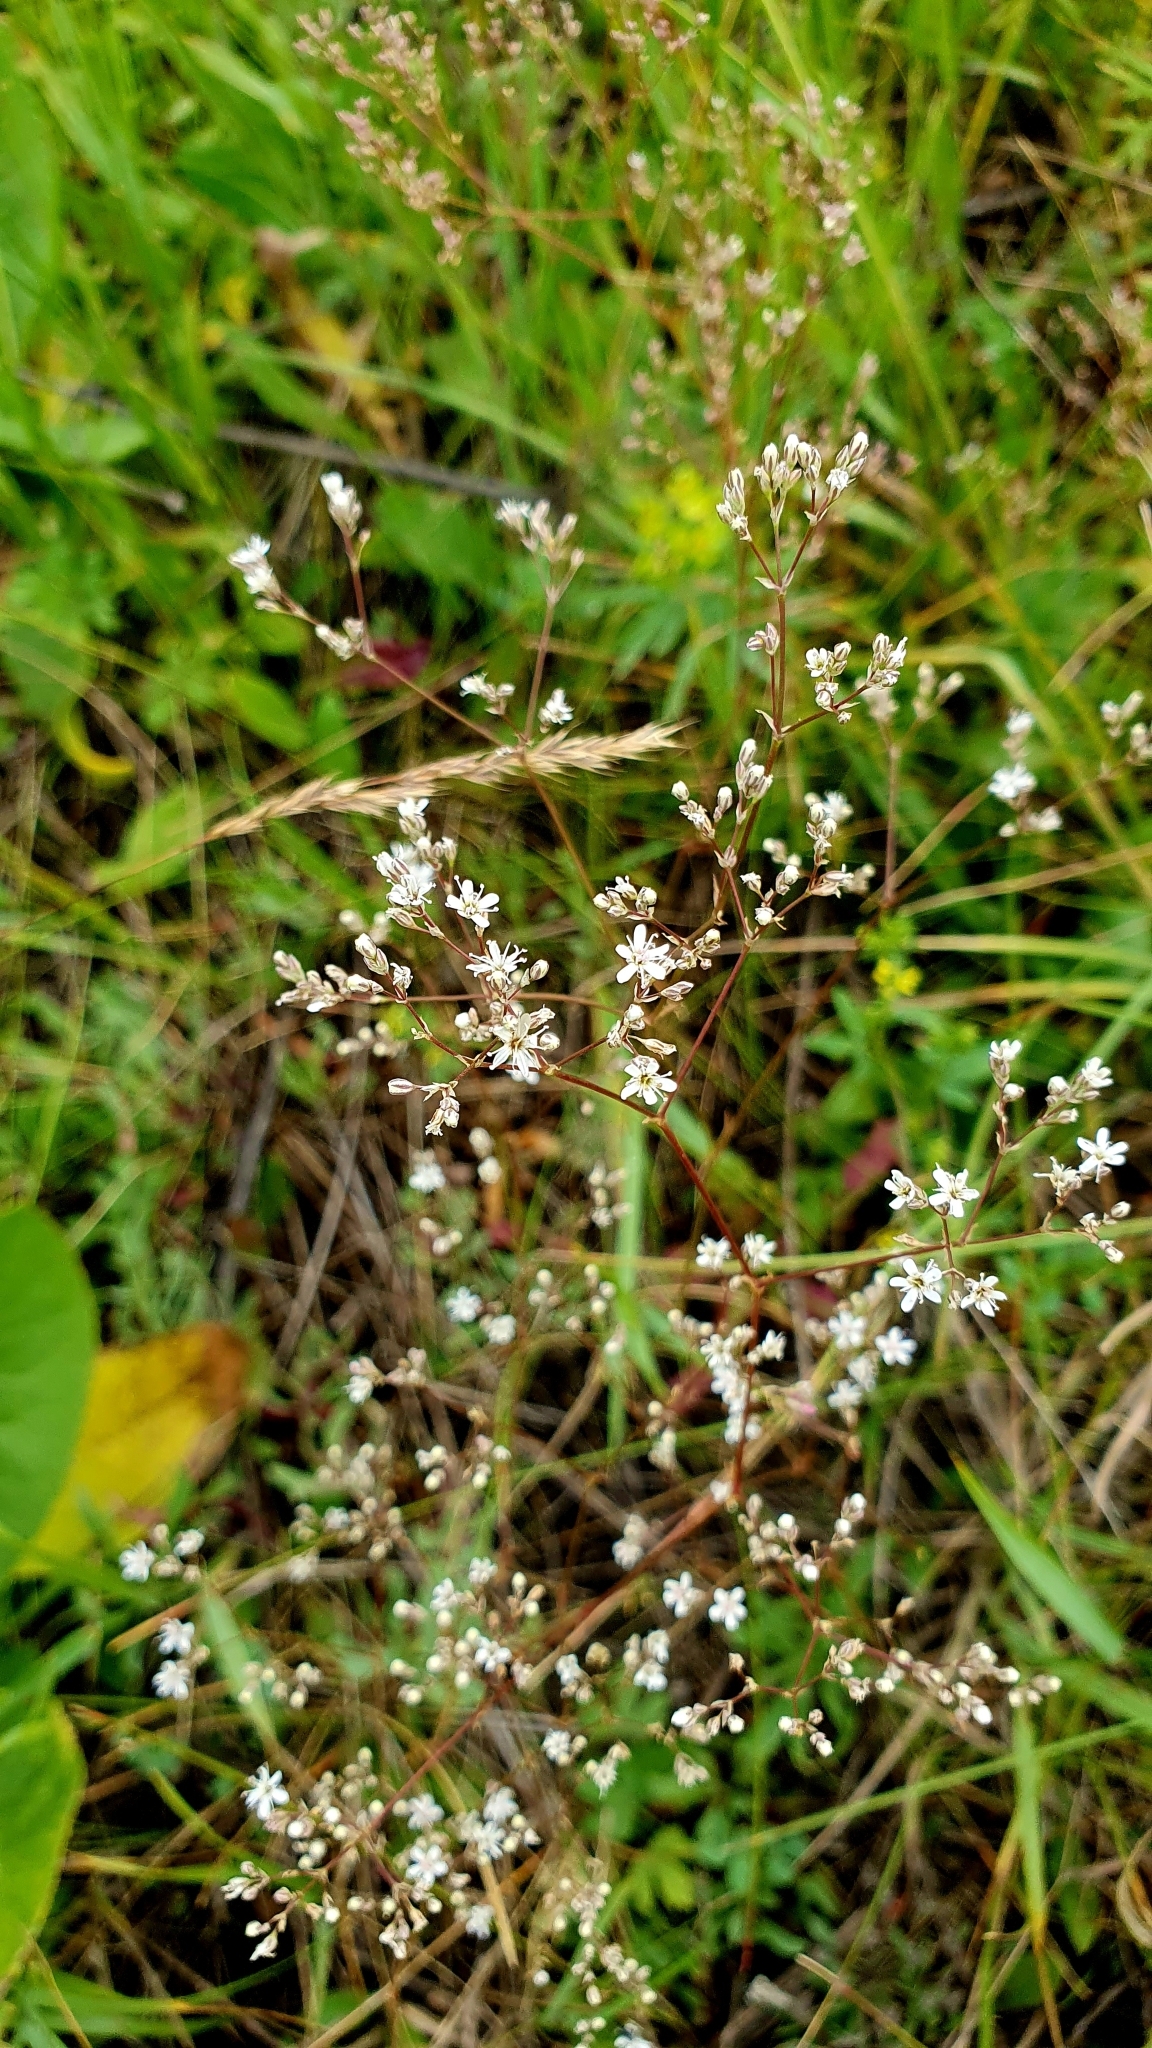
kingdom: Plantae
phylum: Tracheophyta
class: Magnoliopsida
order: Caryophyllales
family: Caryophyllaceae
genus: Gypsophila
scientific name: Gypsophila altissima
